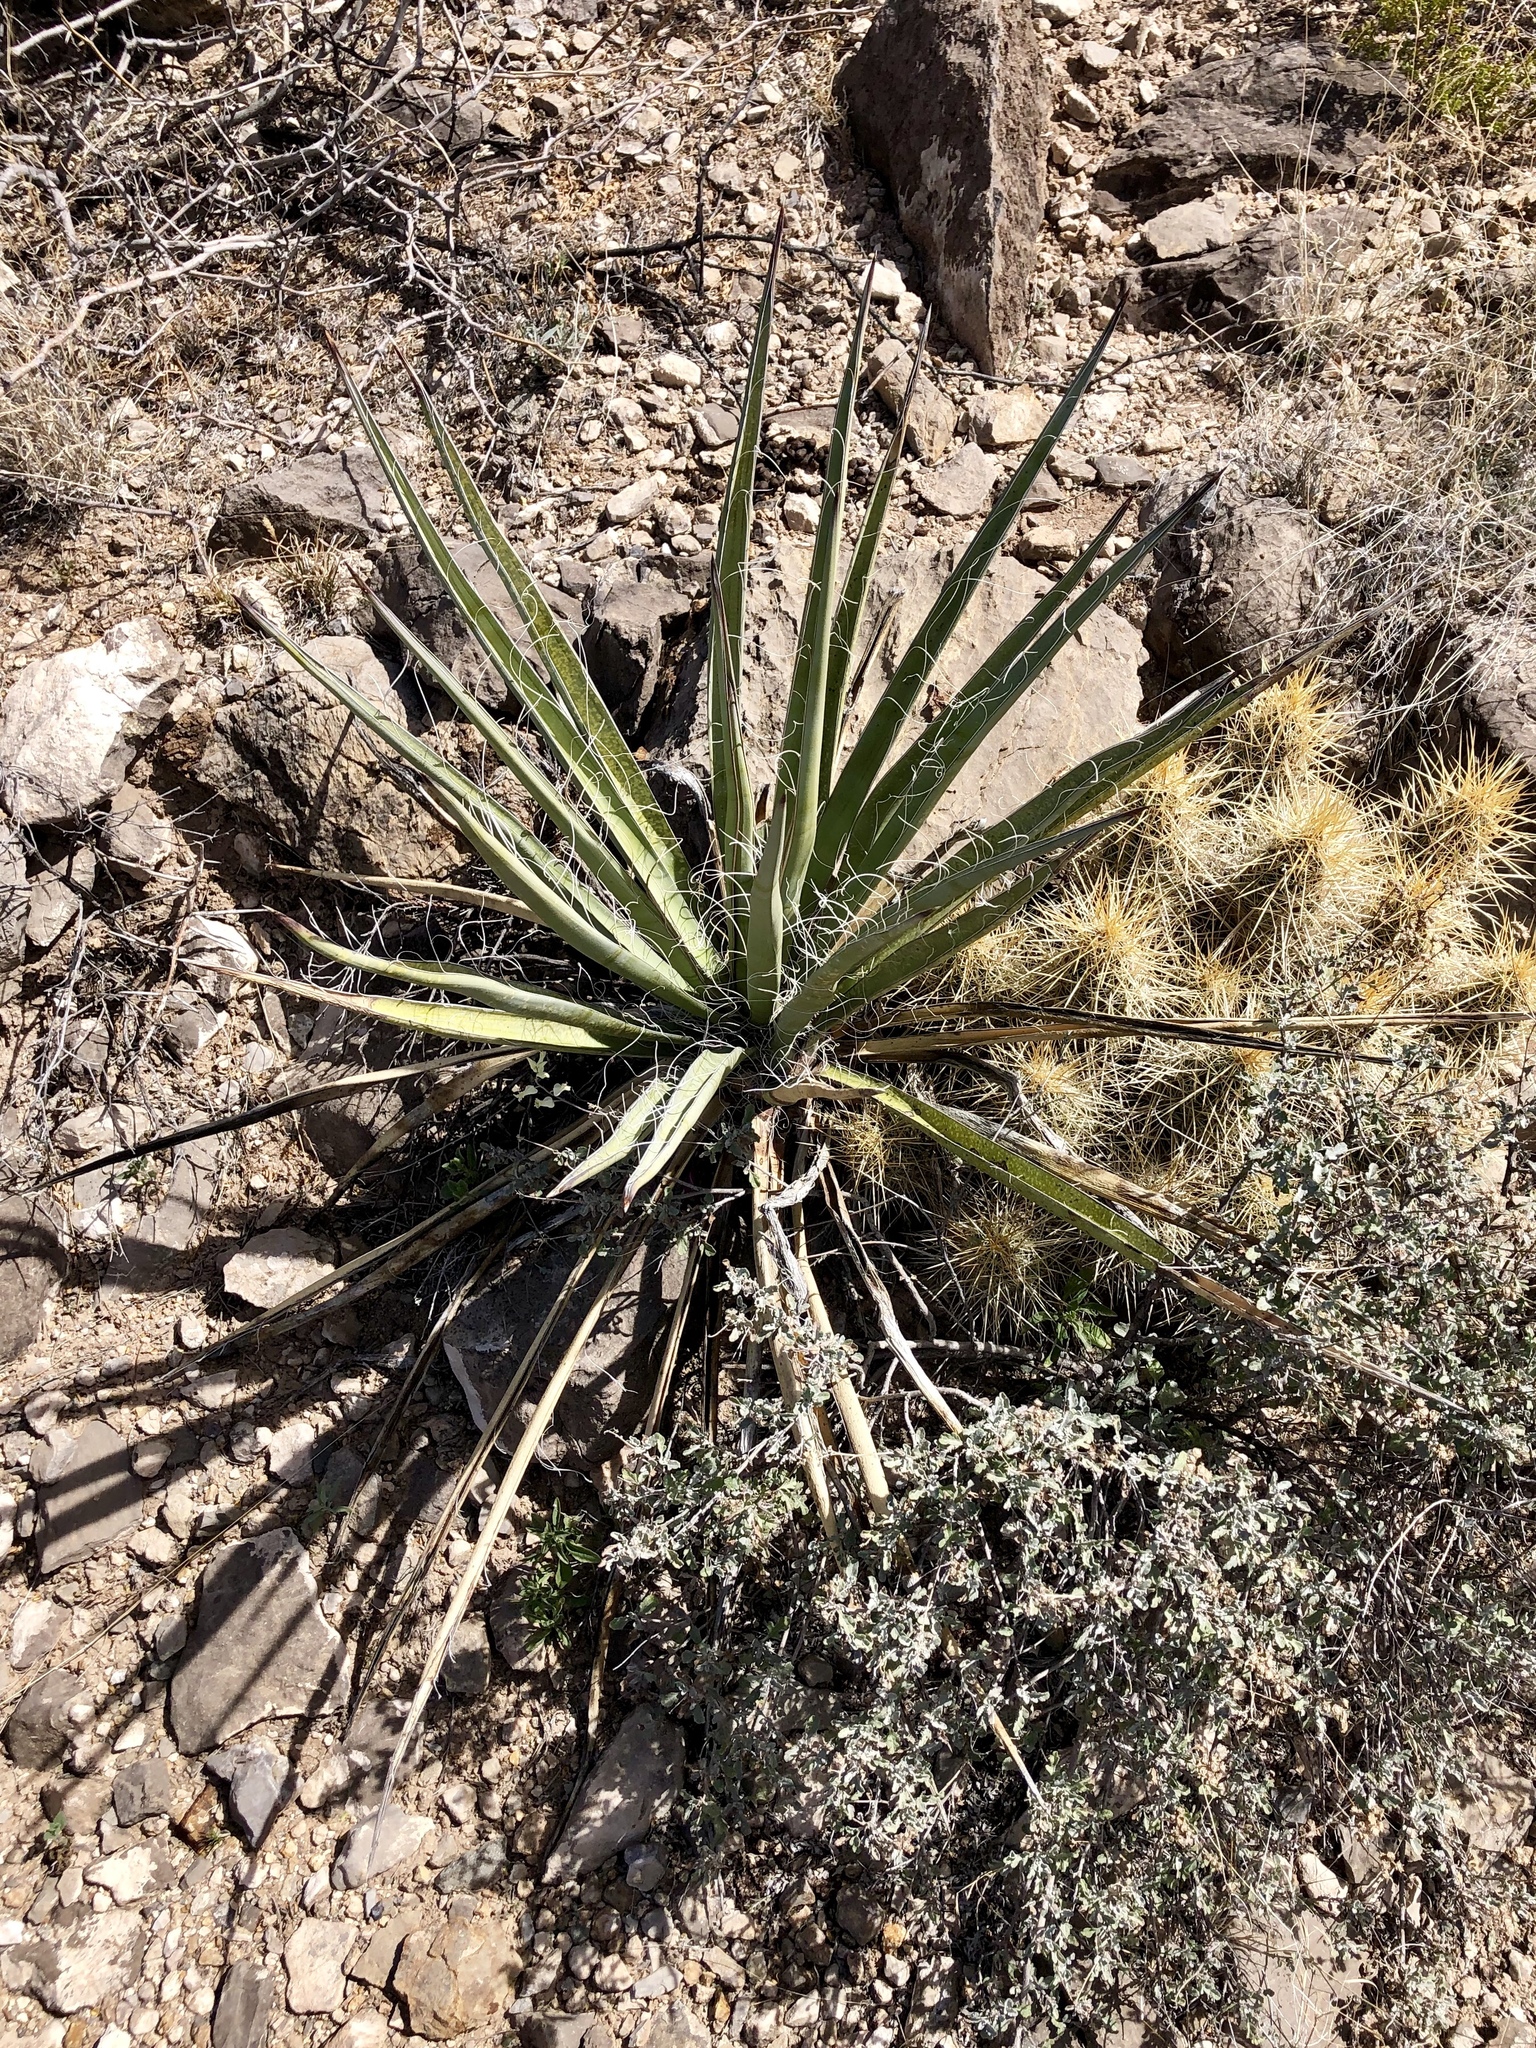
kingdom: Plantae
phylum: Tracheophyta
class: Liliopsida
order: Asparagales
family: Asparagaceae
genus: Yucca
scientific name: Yucca treculiana
